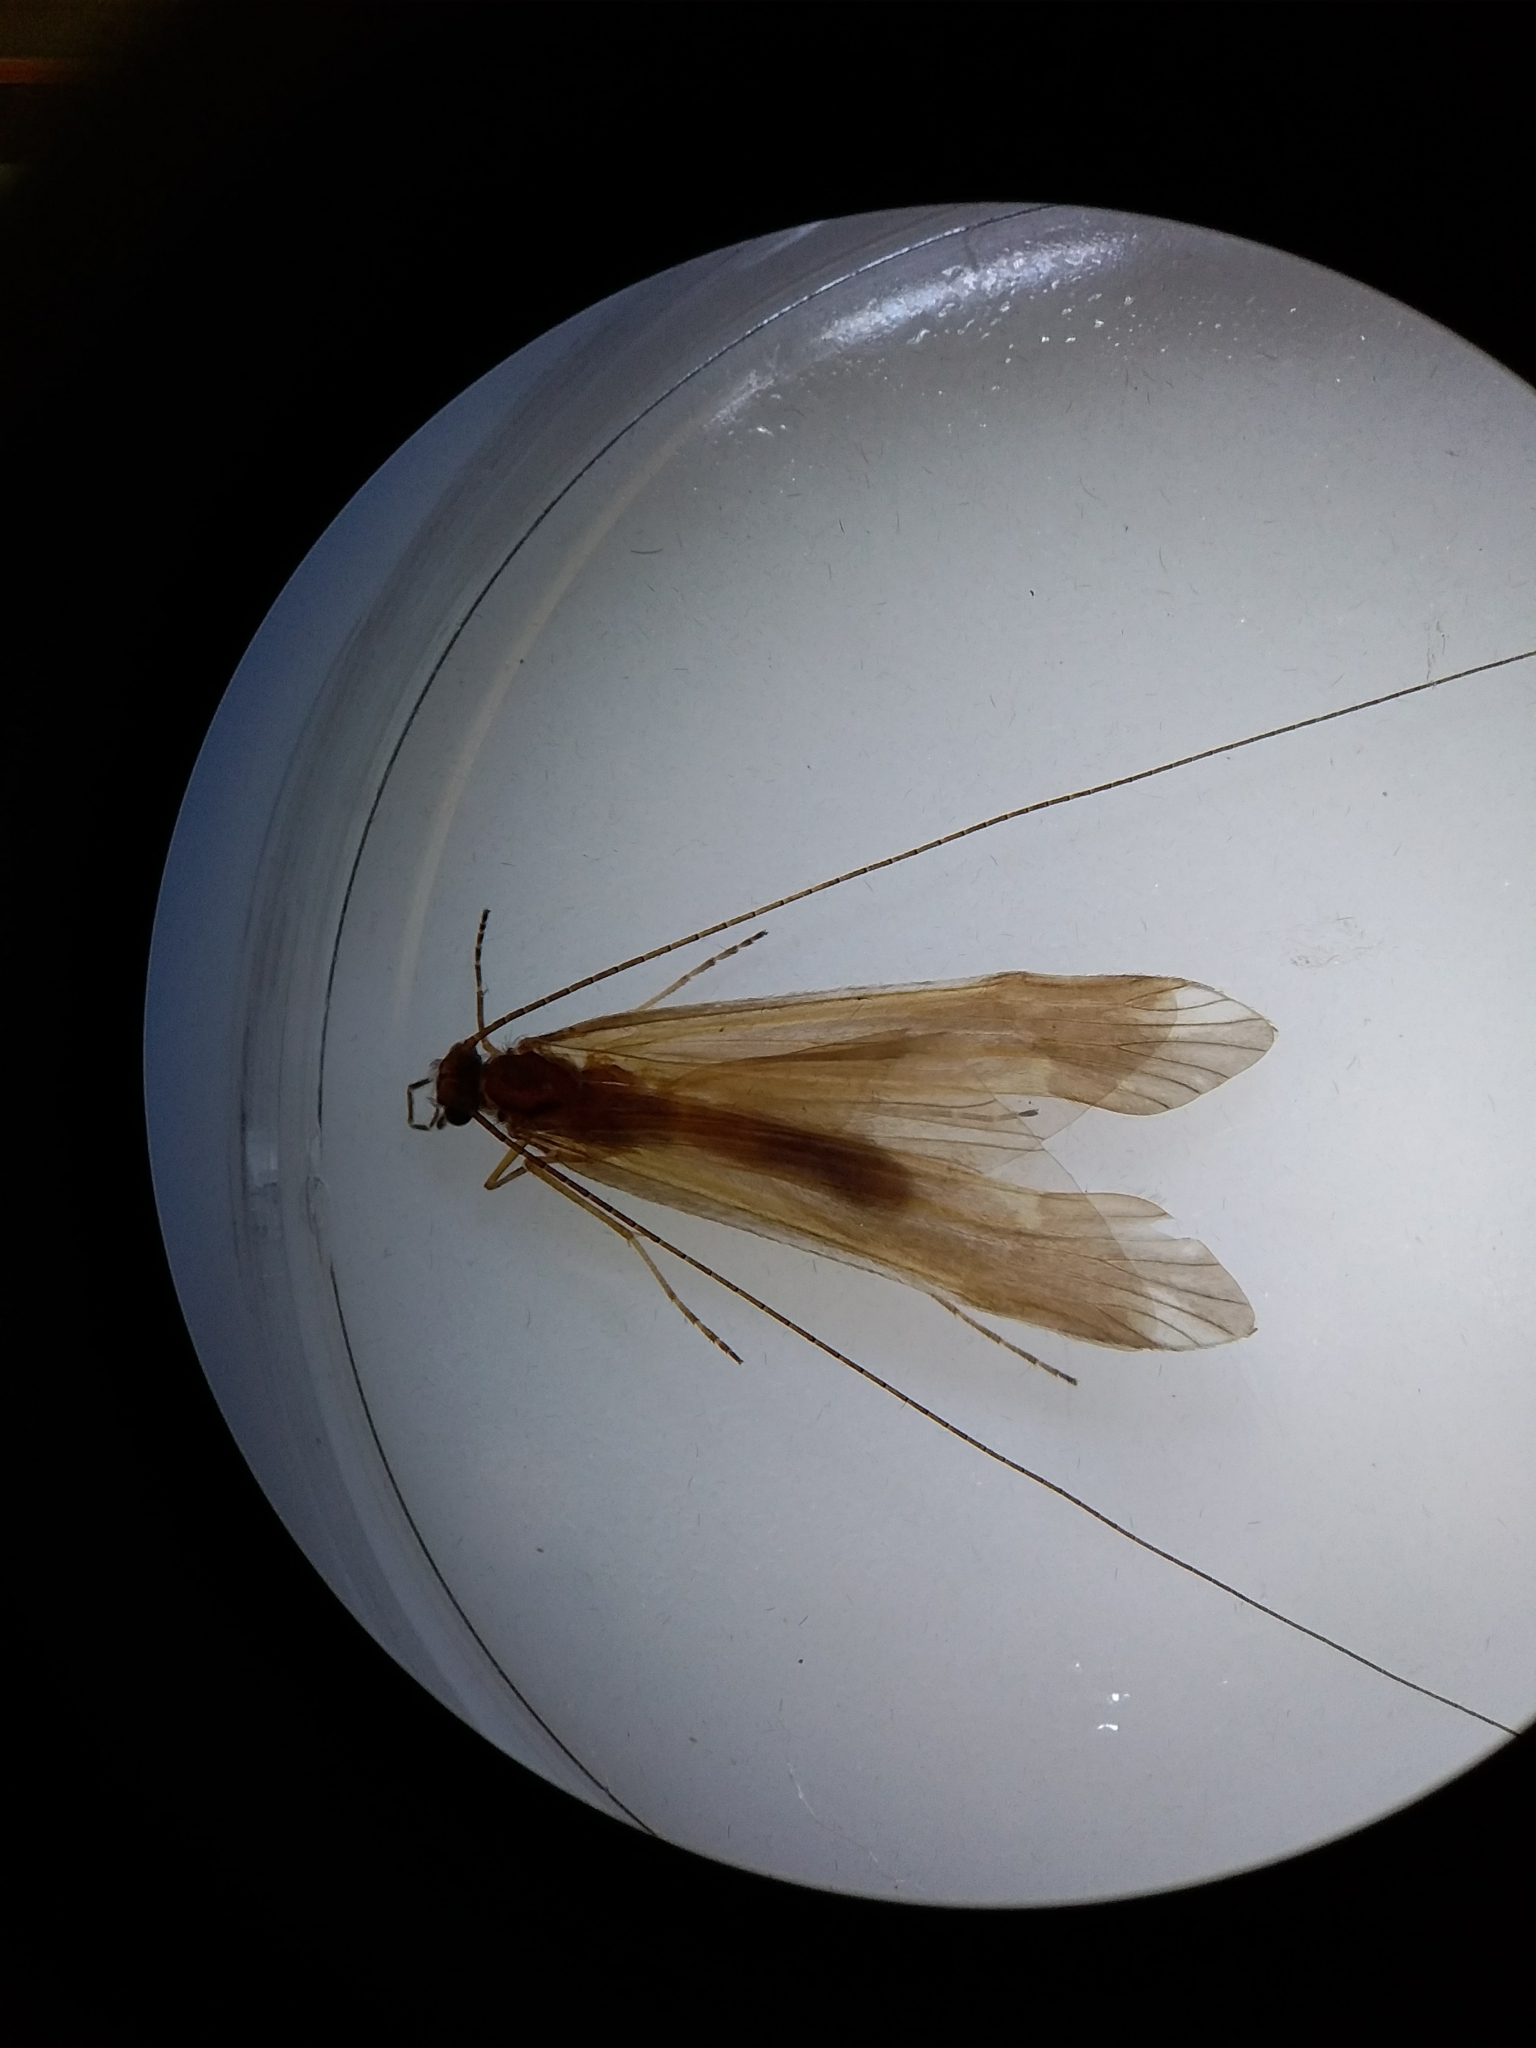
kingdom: Animalia
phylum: Arthropoda
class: Insecta
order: Trichoptera
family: Leptoceridae
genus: Hudsonema
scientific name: Hudsonema amabile
